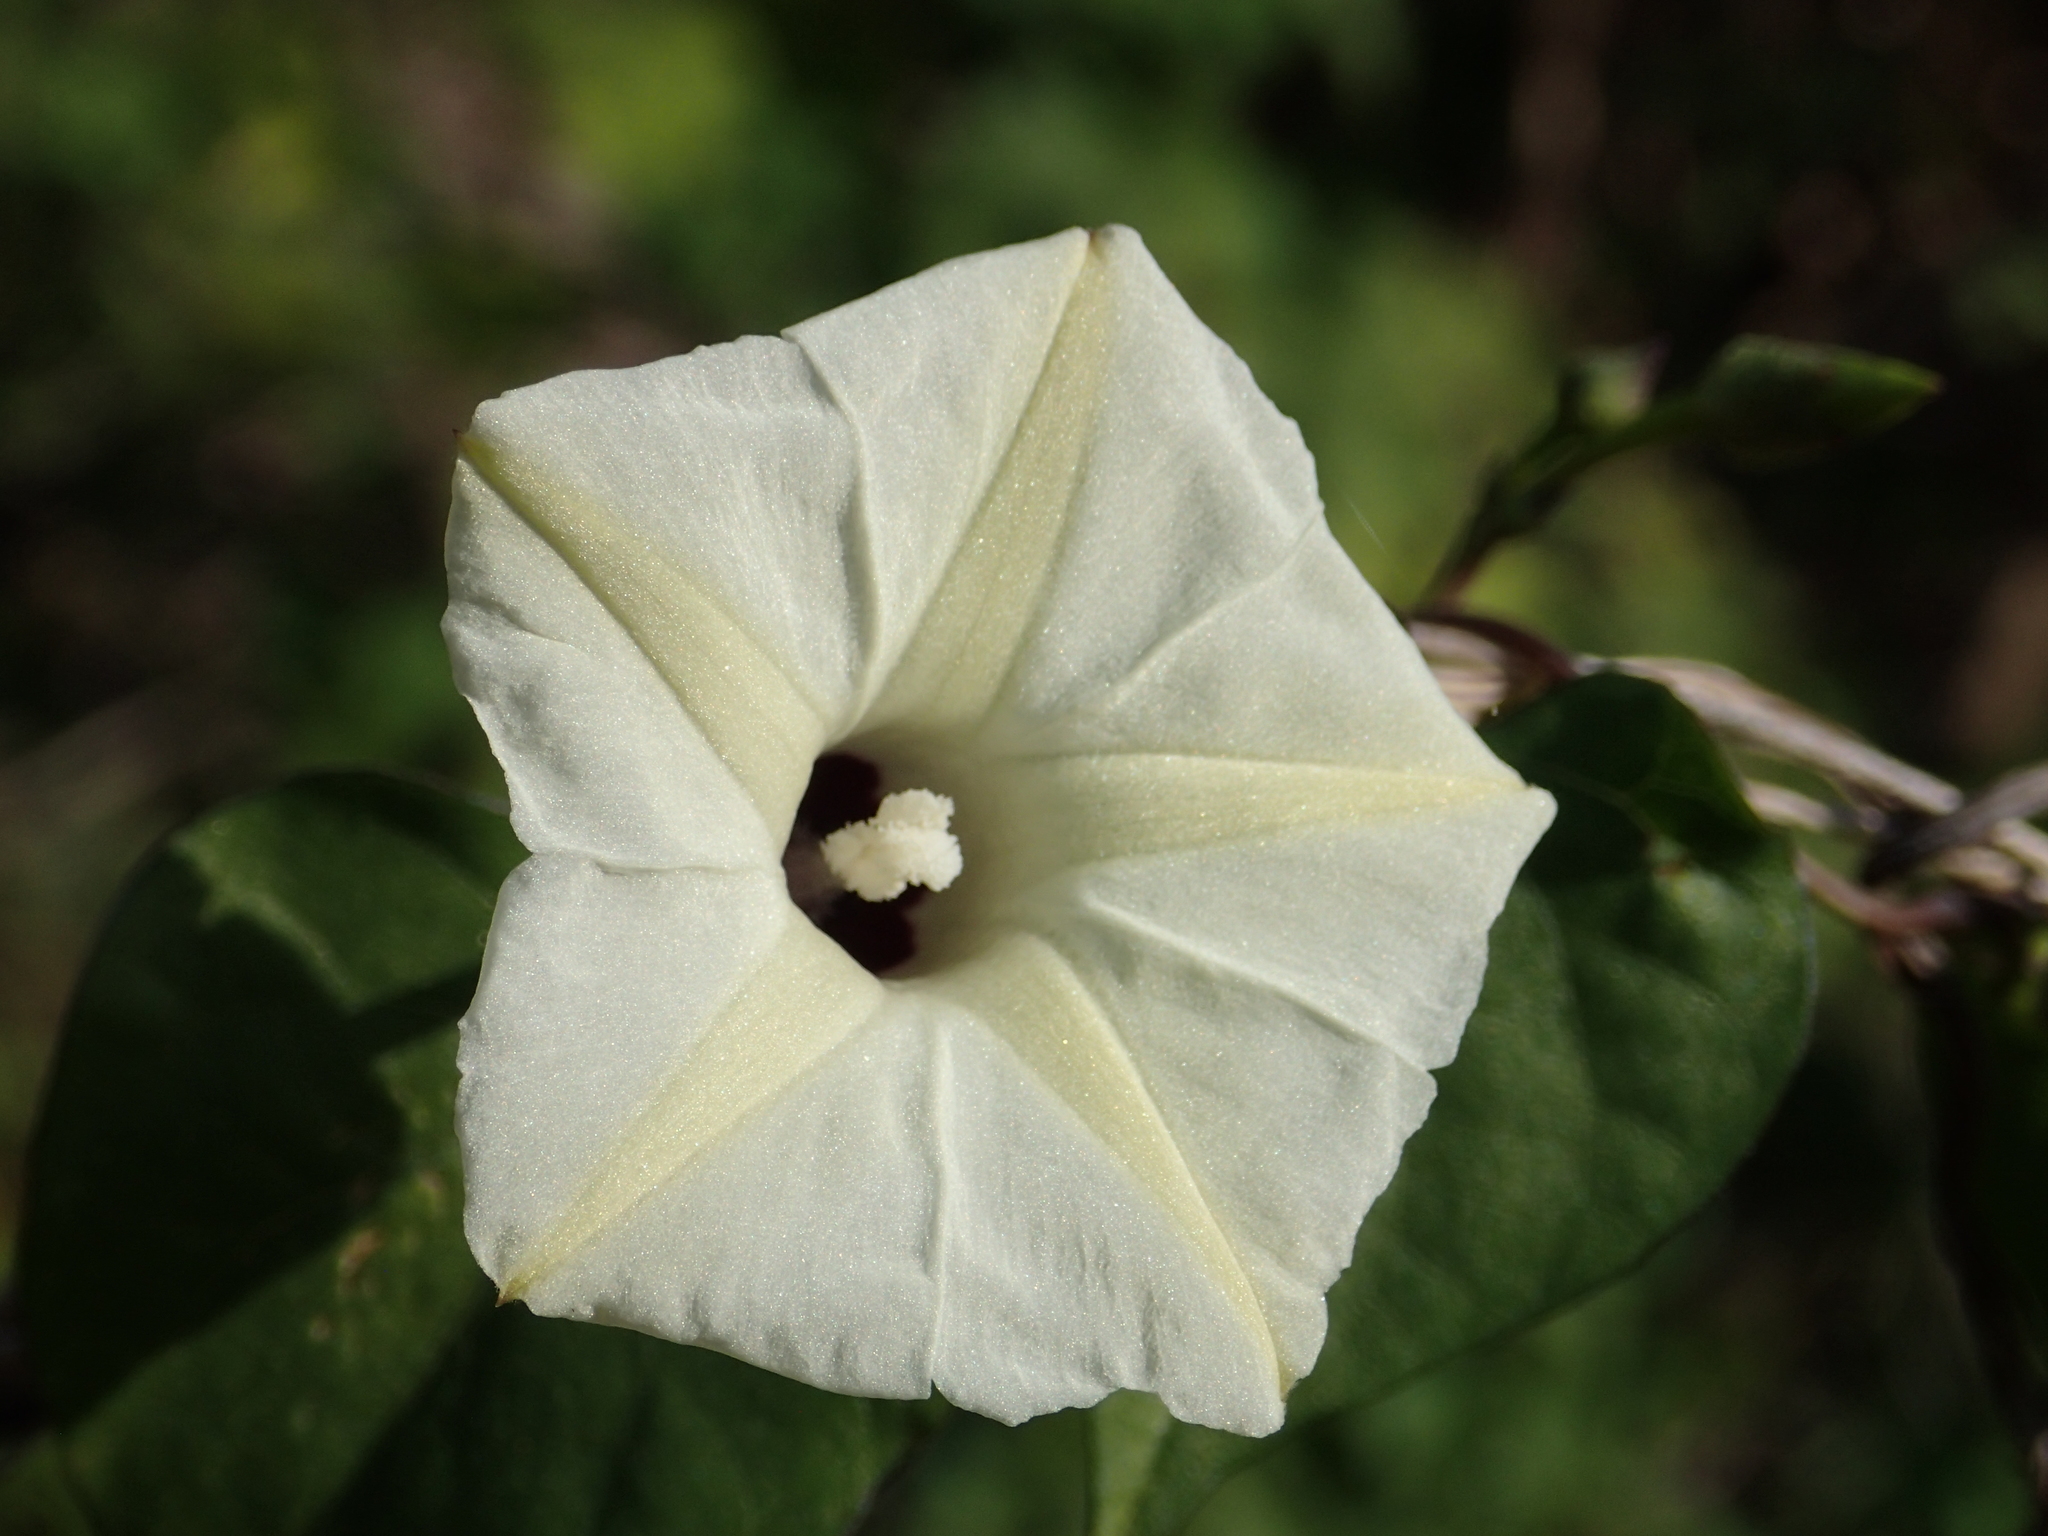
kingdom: Plantae
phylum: Tracheophyta
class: Magnoliopsida
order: Solanales
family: Convolvulaceae
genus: Ipomoea
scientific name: Ipomoea obscura
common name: Obscure morning-glory
